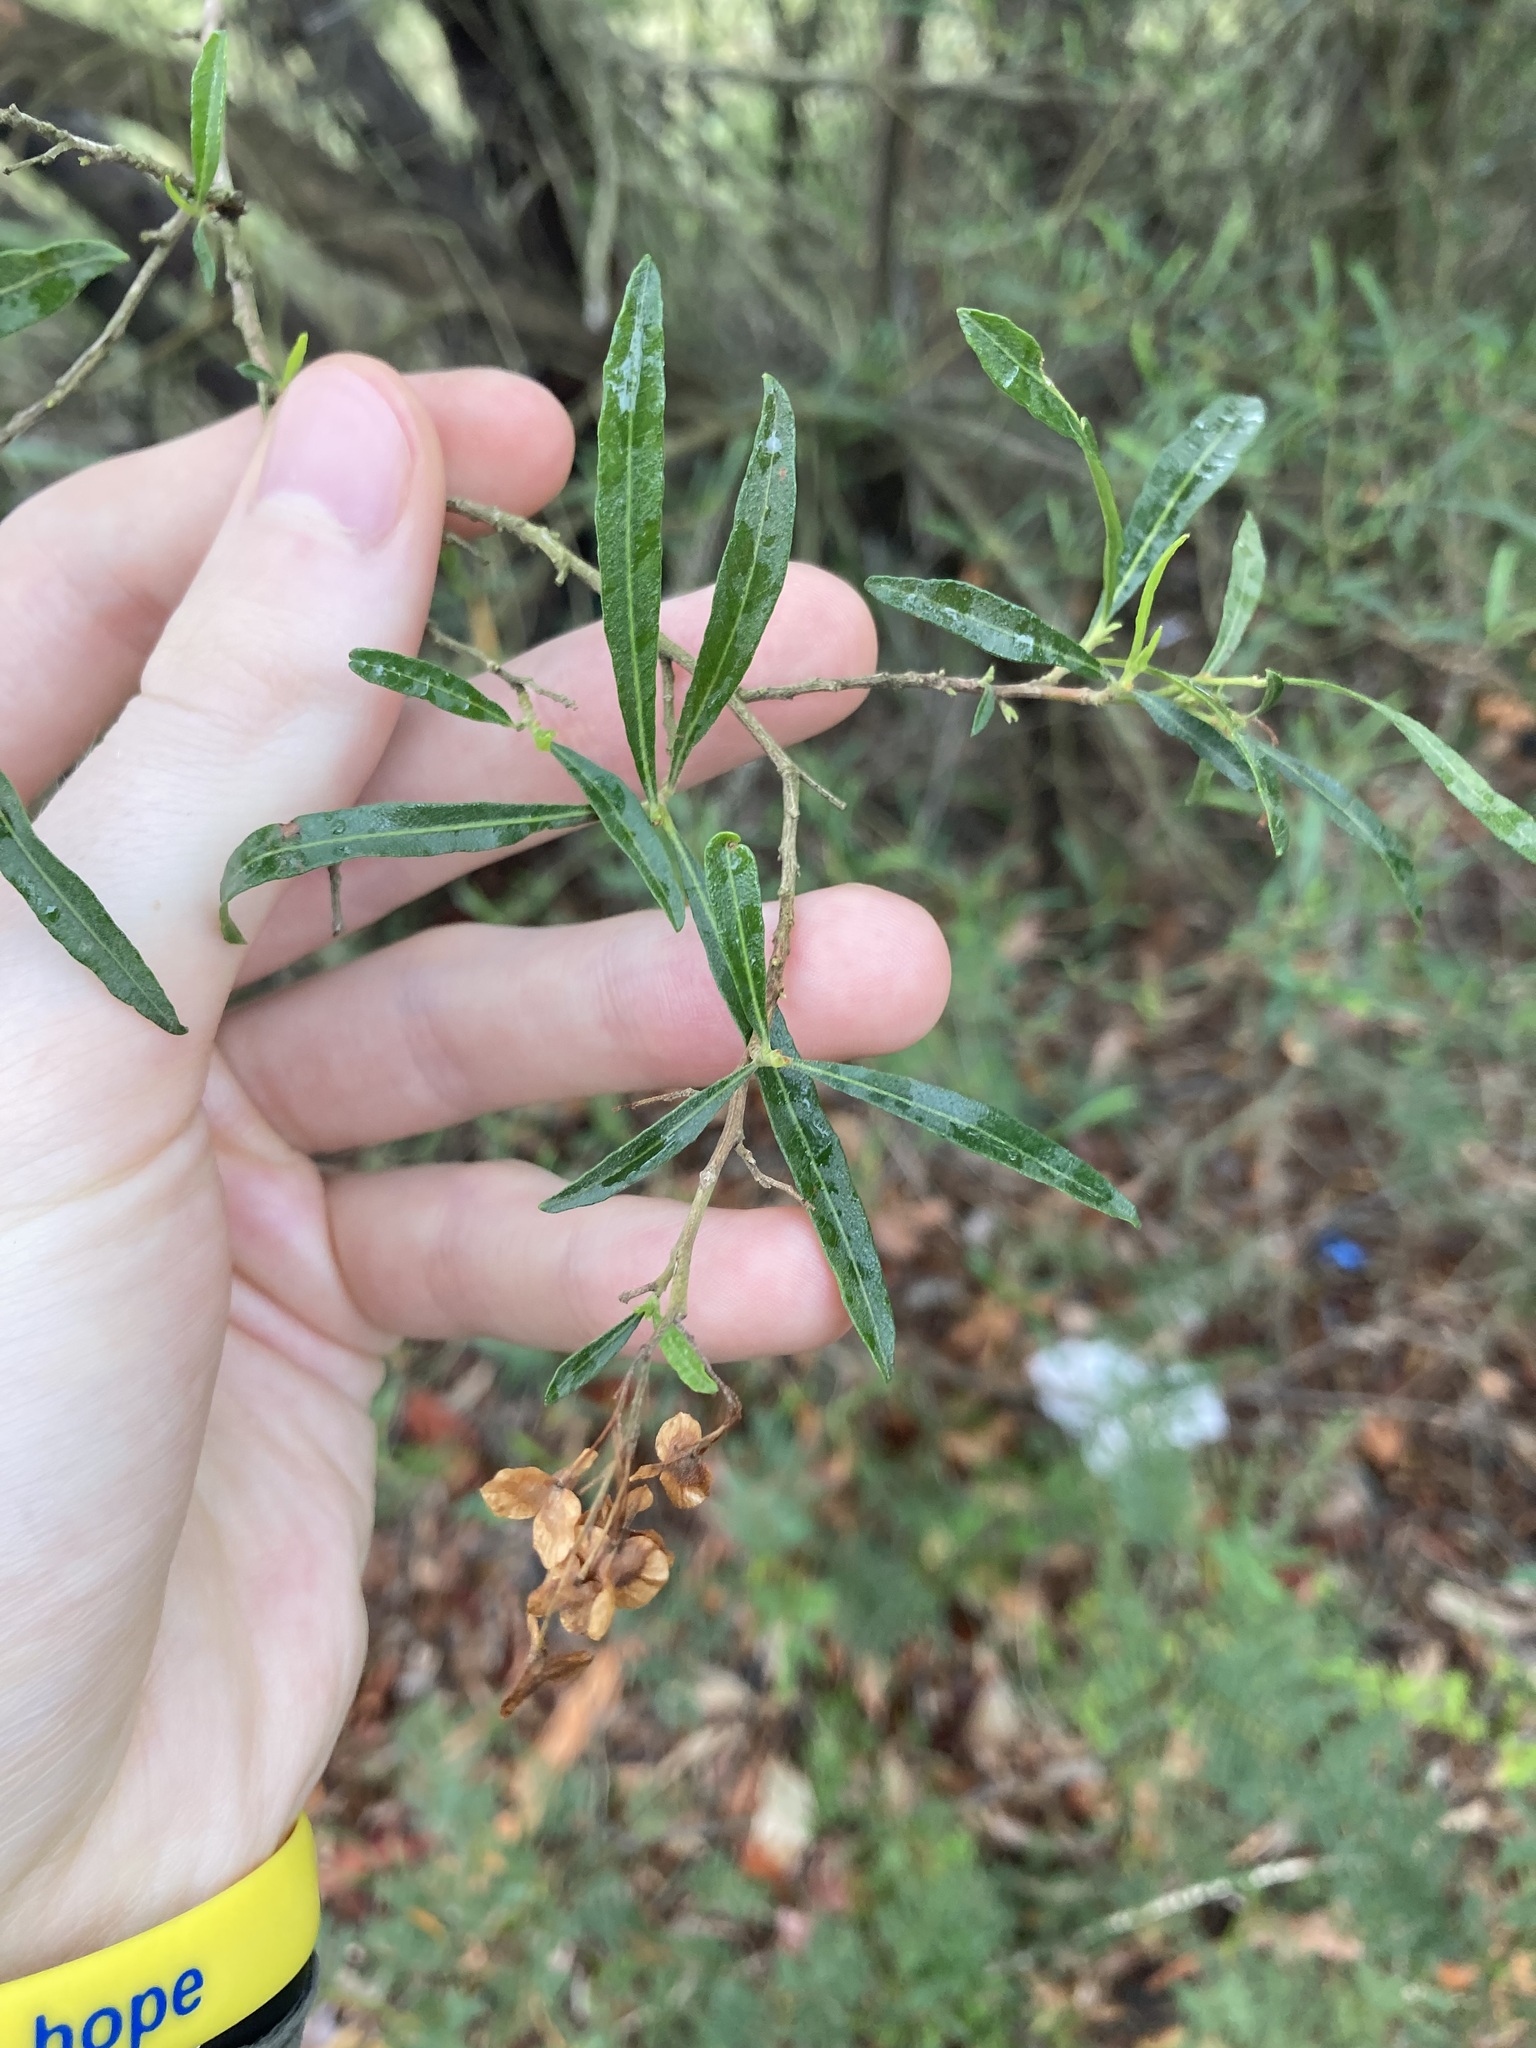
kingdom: Plantae
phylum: Tracheophyta
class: Magnoliopsida
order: Sapindales
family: Sapindaceae
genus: Dodonaea
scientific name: Dodonaea viscosa
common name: Hopbush
